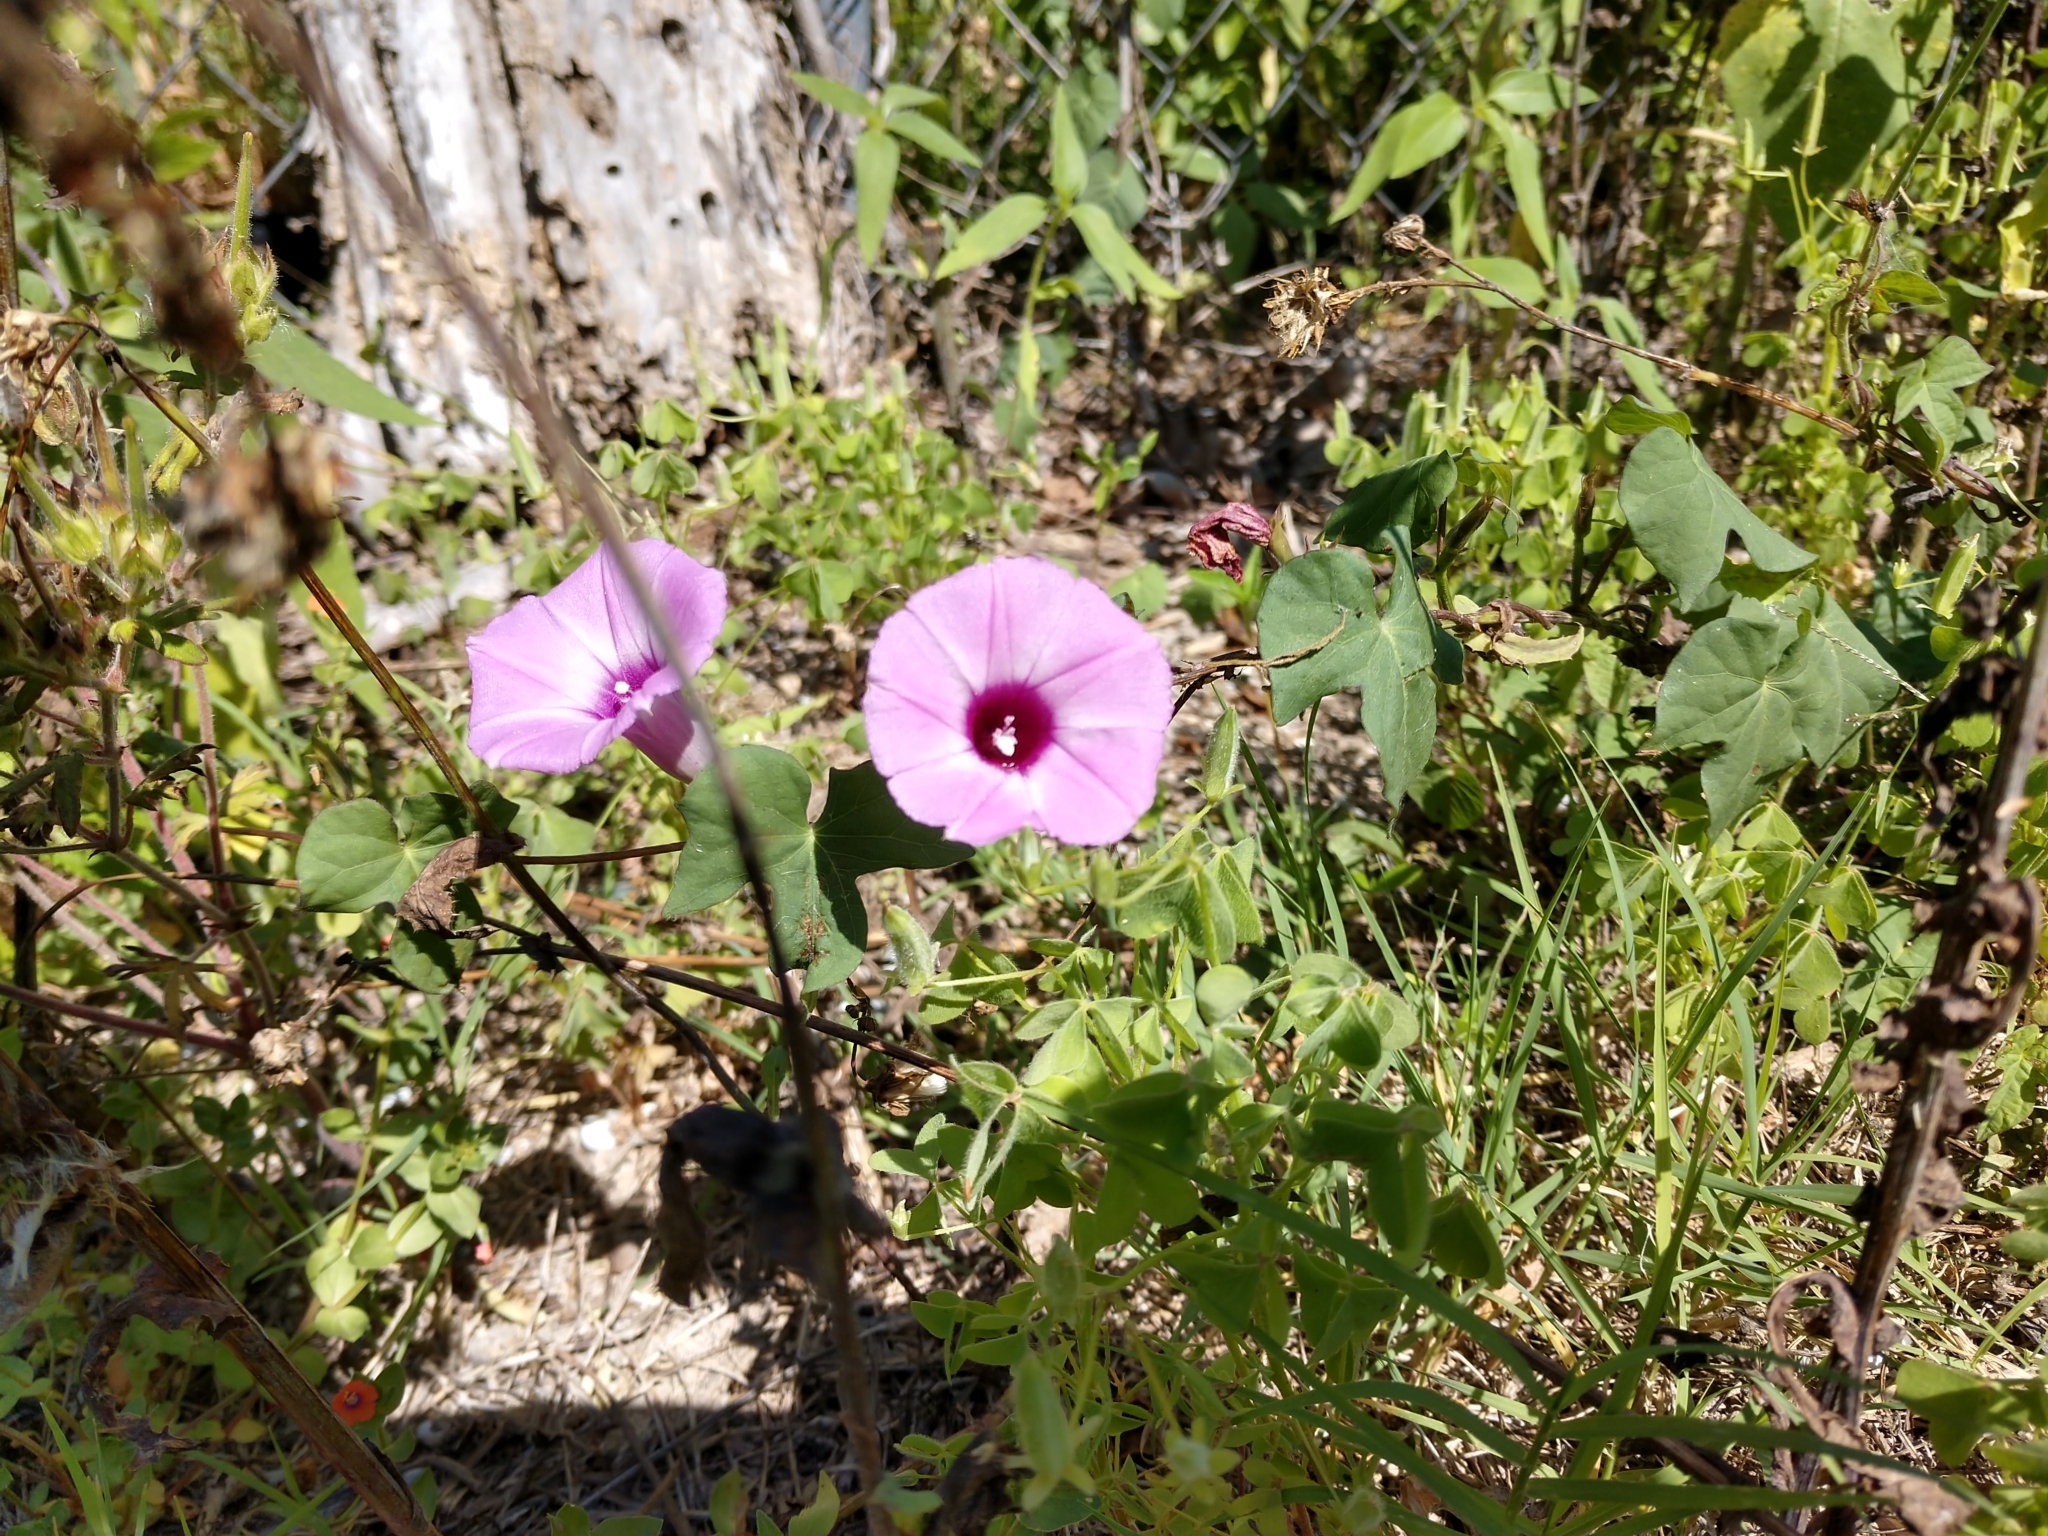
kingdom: Plantae
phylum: Tracheophyta
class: Magnoliopsida
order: Solanales
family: Convolvulaceae
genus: Ipomoea
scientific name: Ipomoea cordatotriloba
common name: Cotton morning glory
